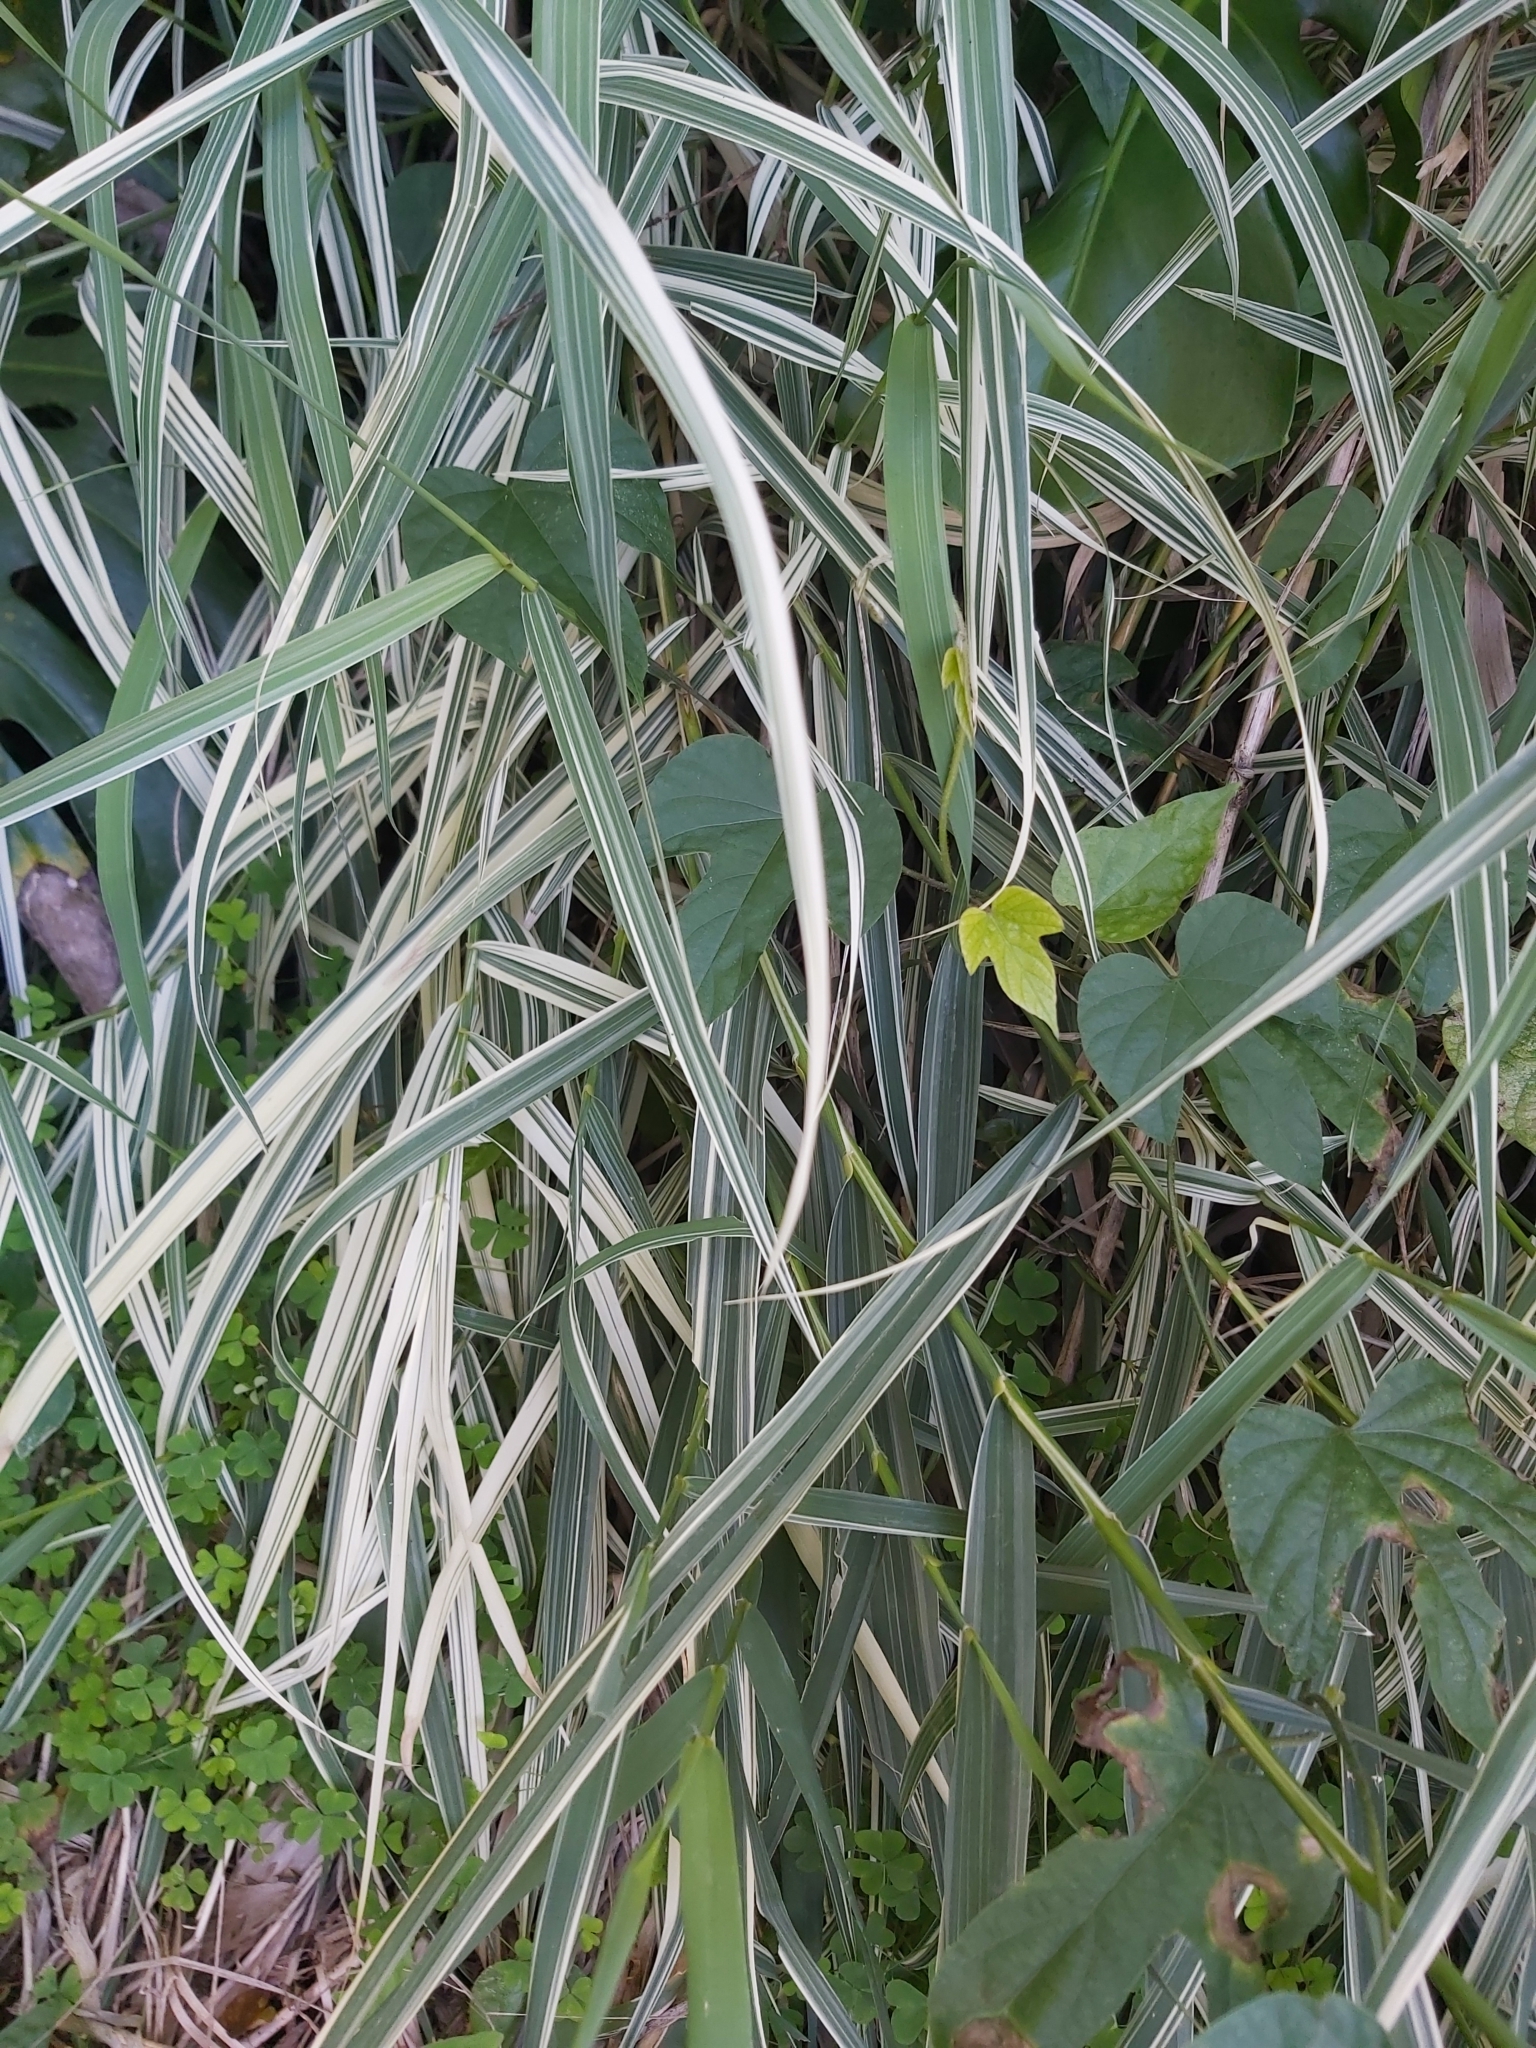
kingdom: Plantae
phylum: Tracheophyta
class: Liliopsida
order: Poales
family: Poaceae
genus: Arundo
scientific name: Arundo donax
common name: Giant reed
